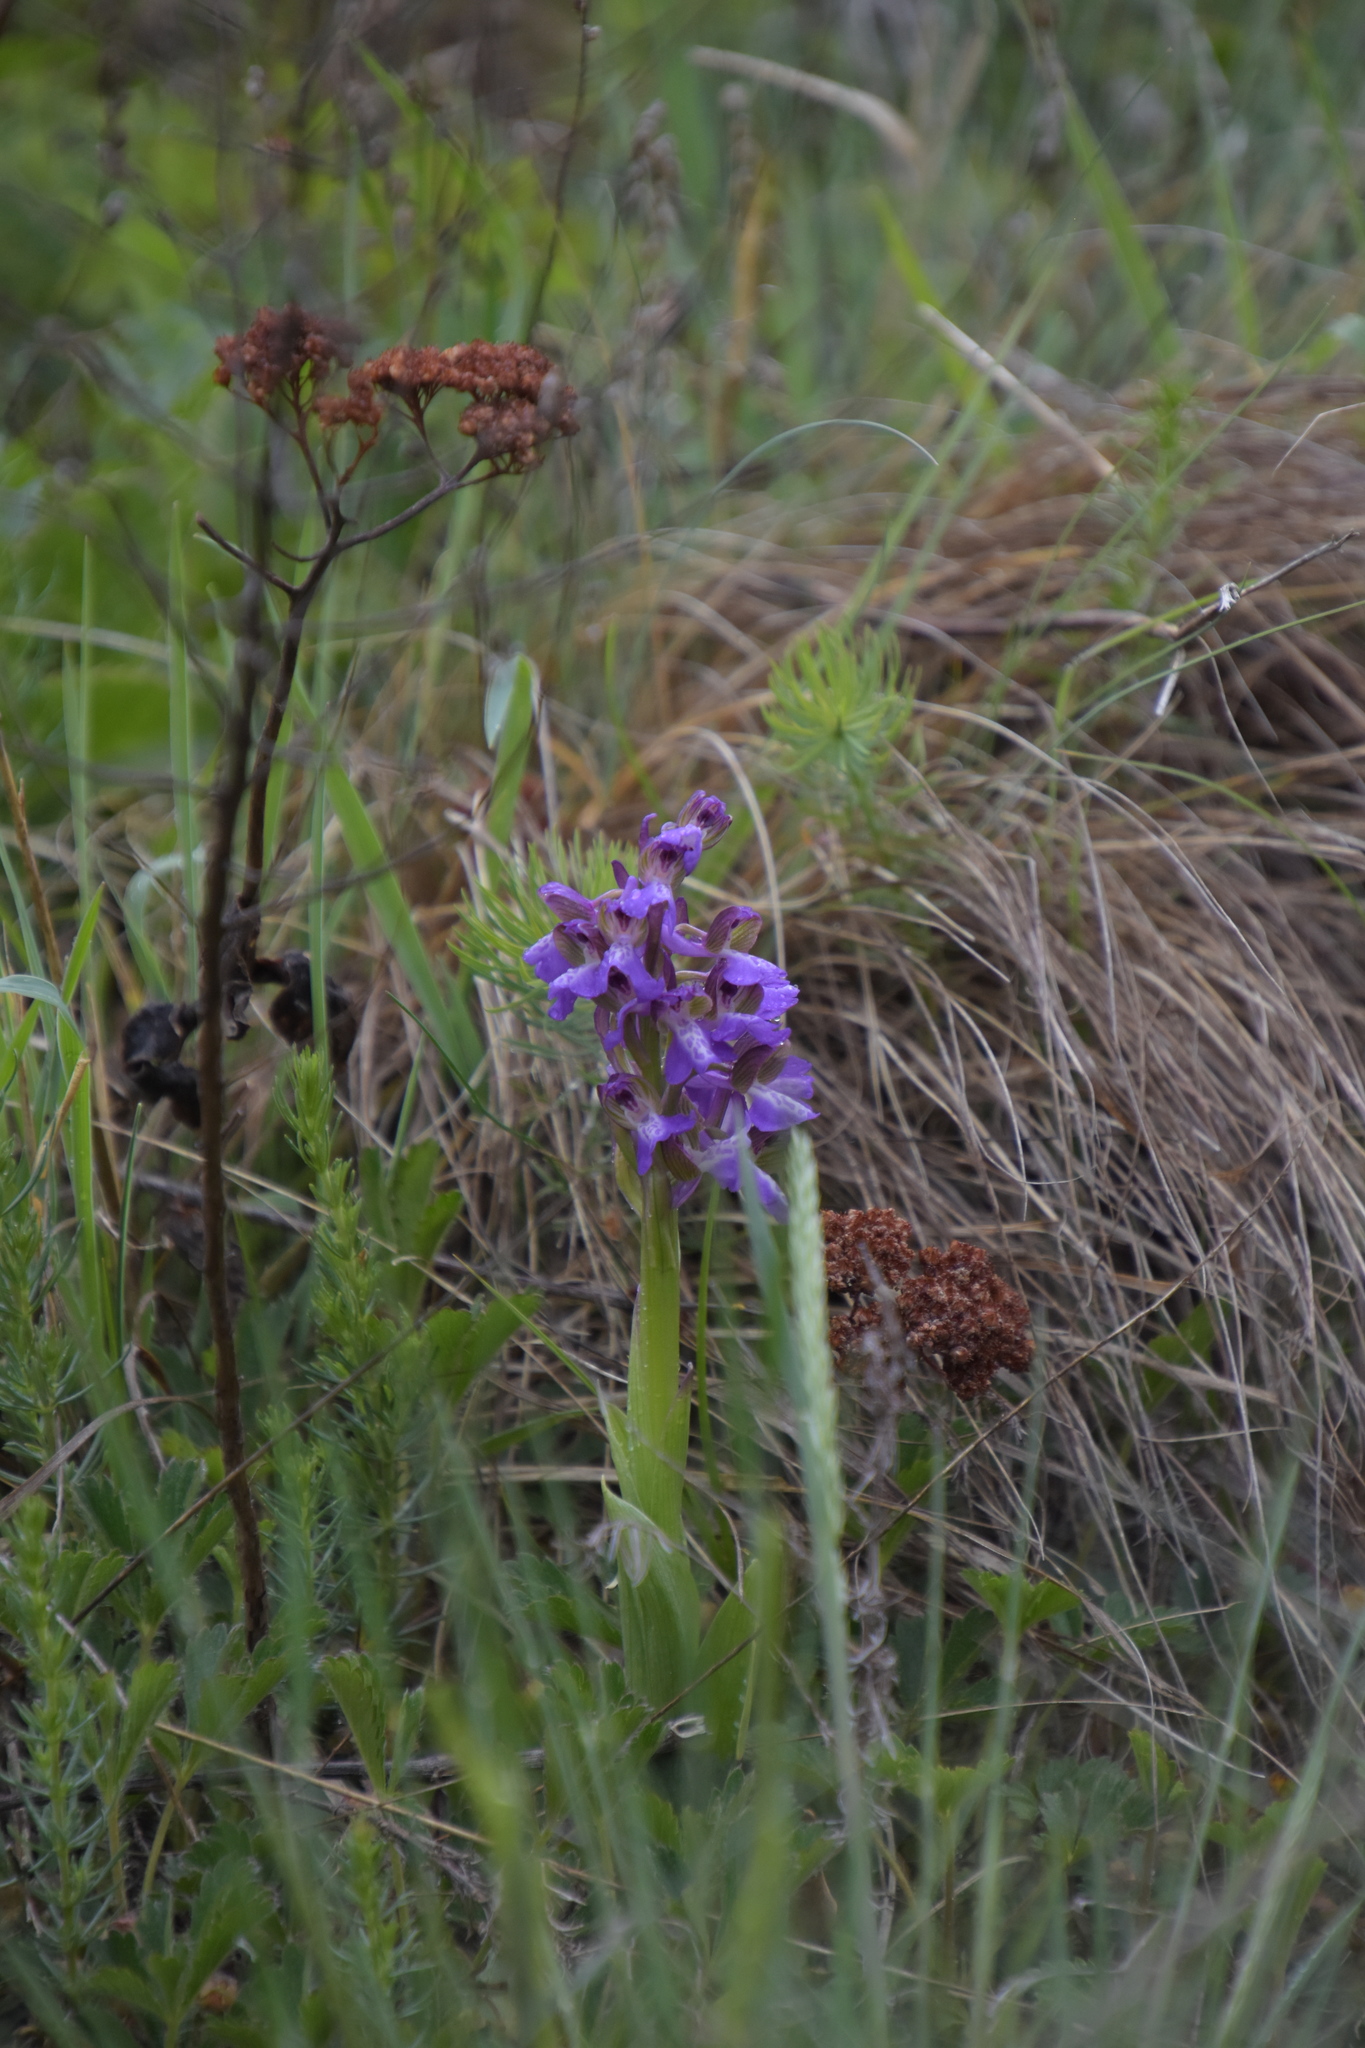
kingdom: Plantae
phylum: Tracheophyta
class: Liliopsida
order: Asparagales
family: Orchidaceae
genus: Anacamptis
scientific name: Anacamptis morio
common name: Green-winged orchid
